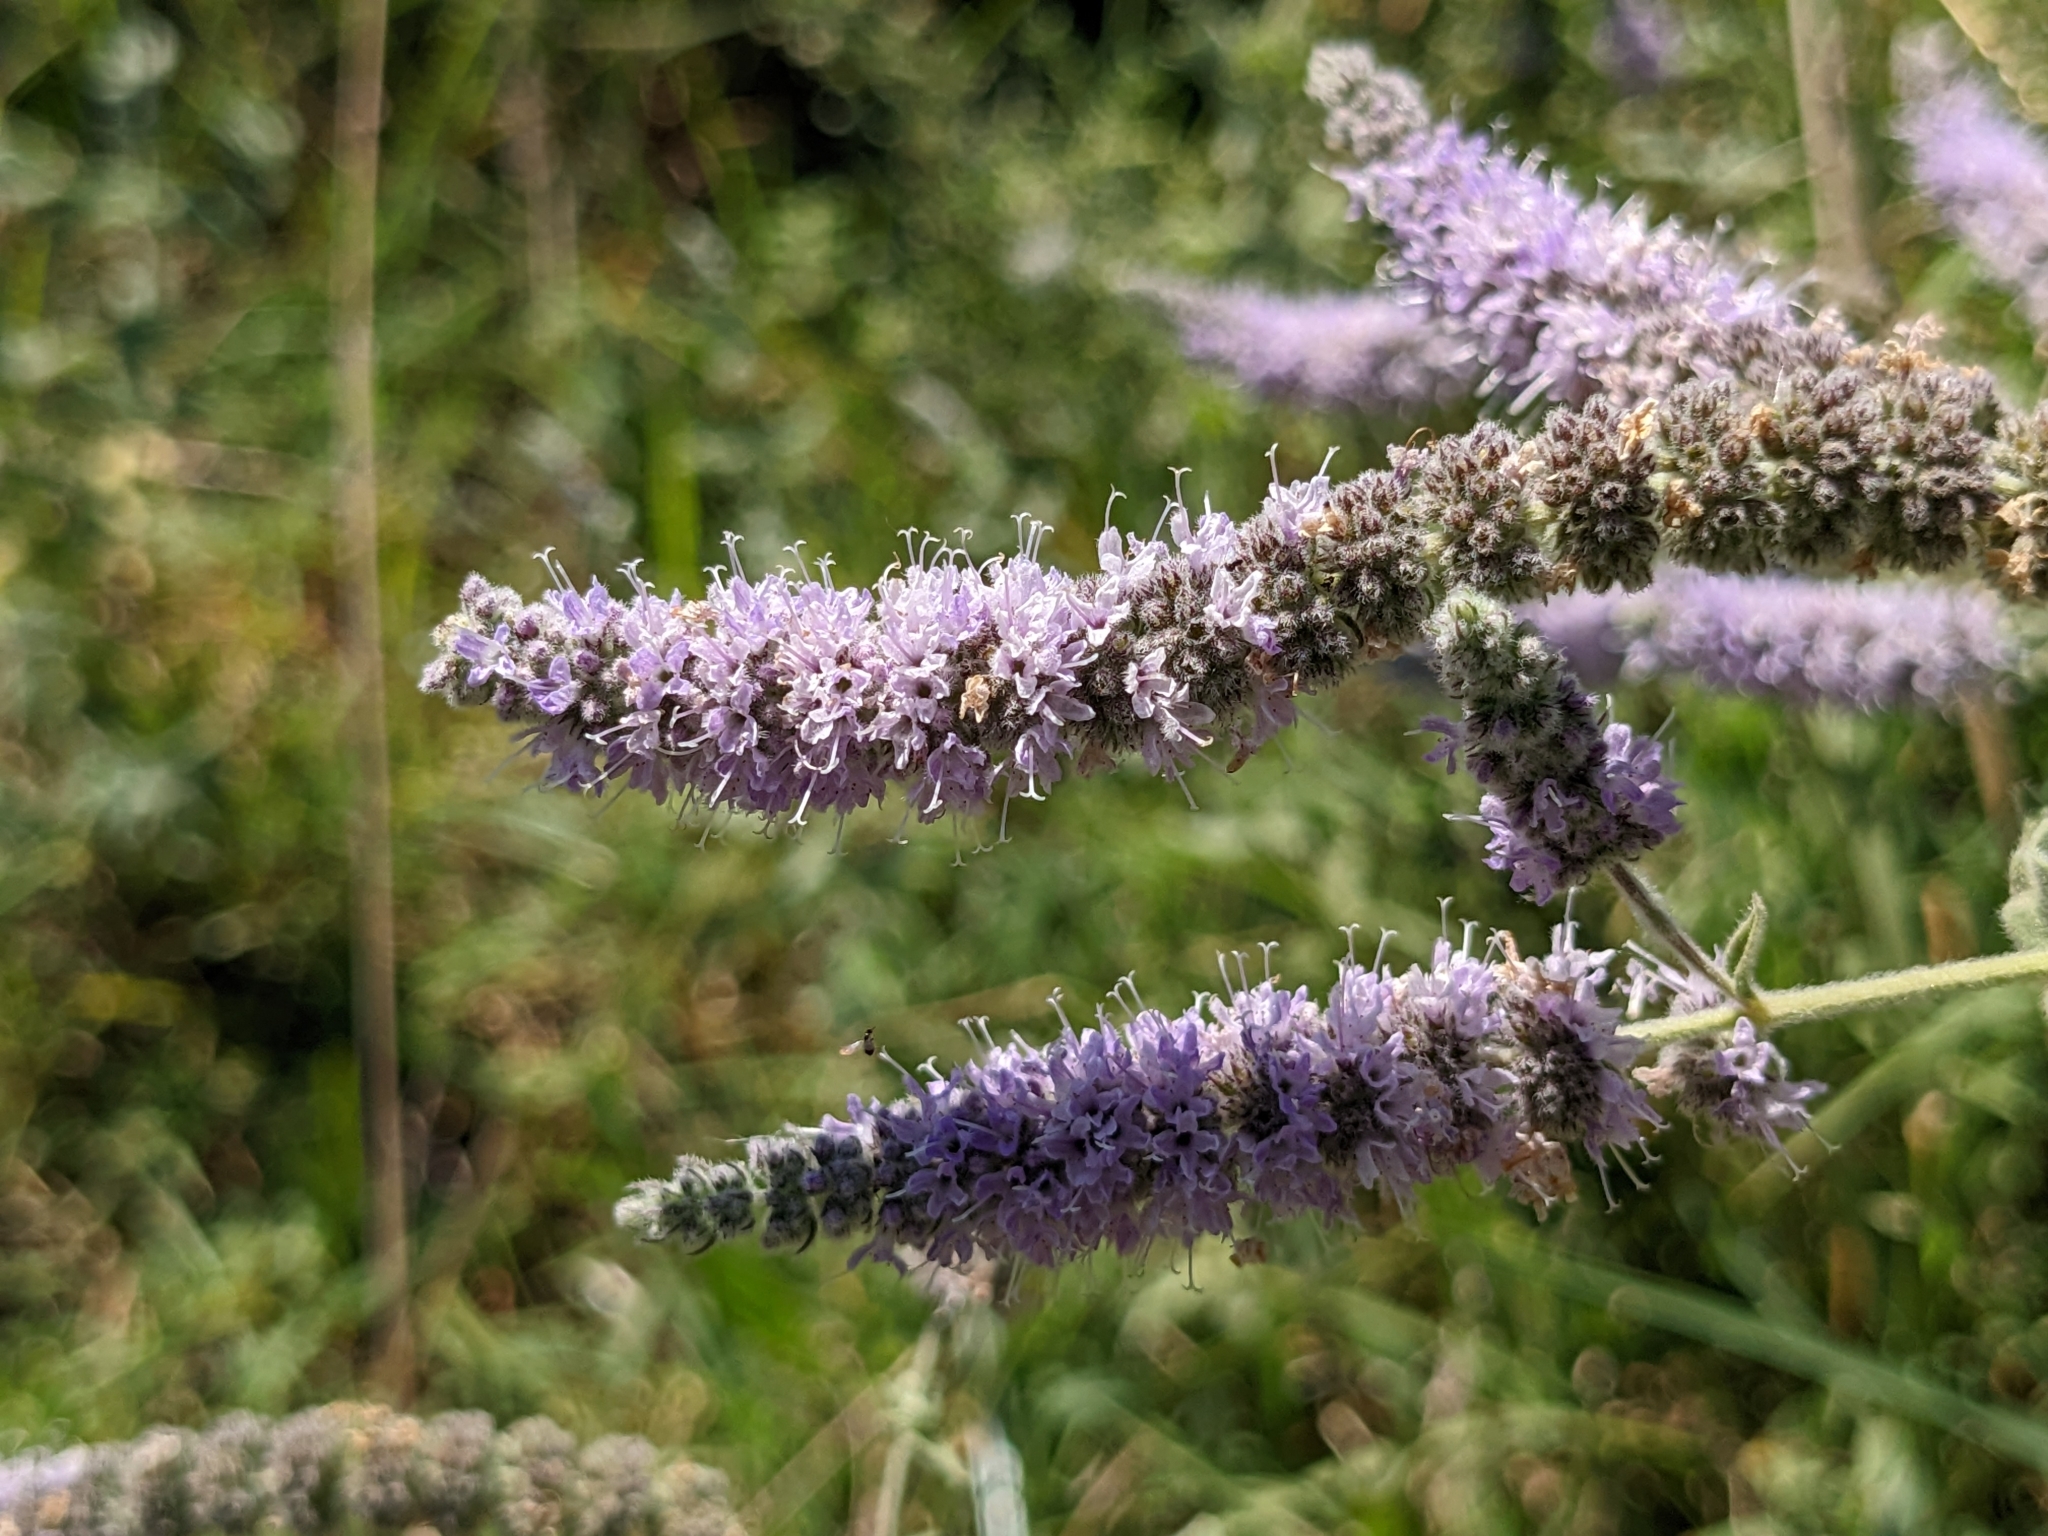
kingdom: Plantae
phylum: Tracheophyta
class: Magnoliopsida
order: Lamiales
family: Lamiaceae
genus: Mentha
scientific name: Mentha longifolia
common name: Horse mint
